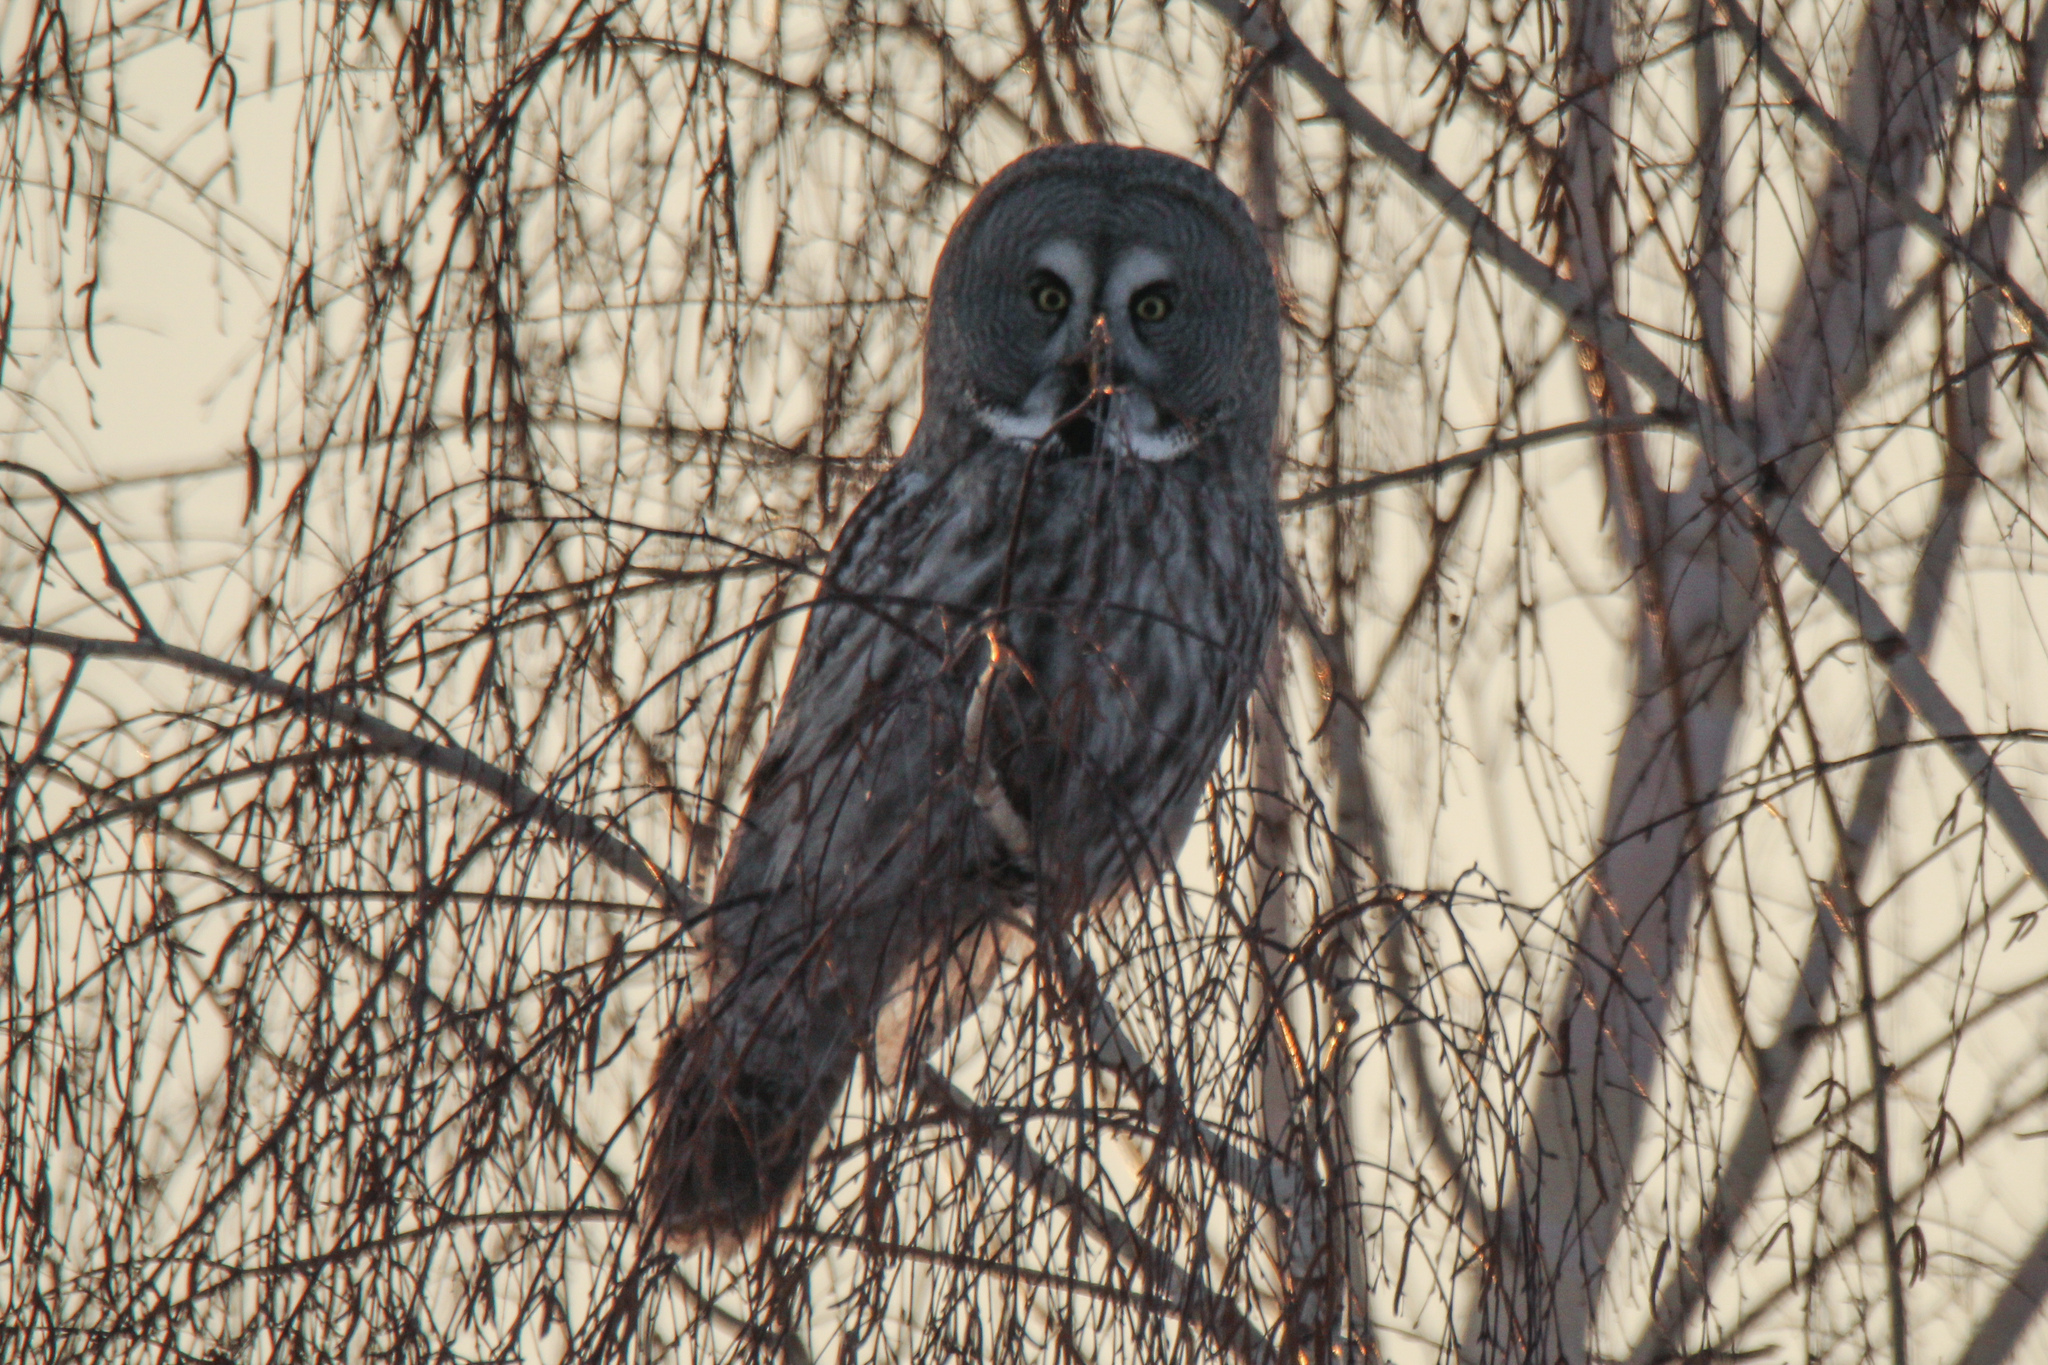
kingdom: Animalia
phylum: Chordata
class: Aves
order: Strigiformes
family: Strigidae
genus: Strix
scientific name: Strix nebulosa
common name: Great grey owl
